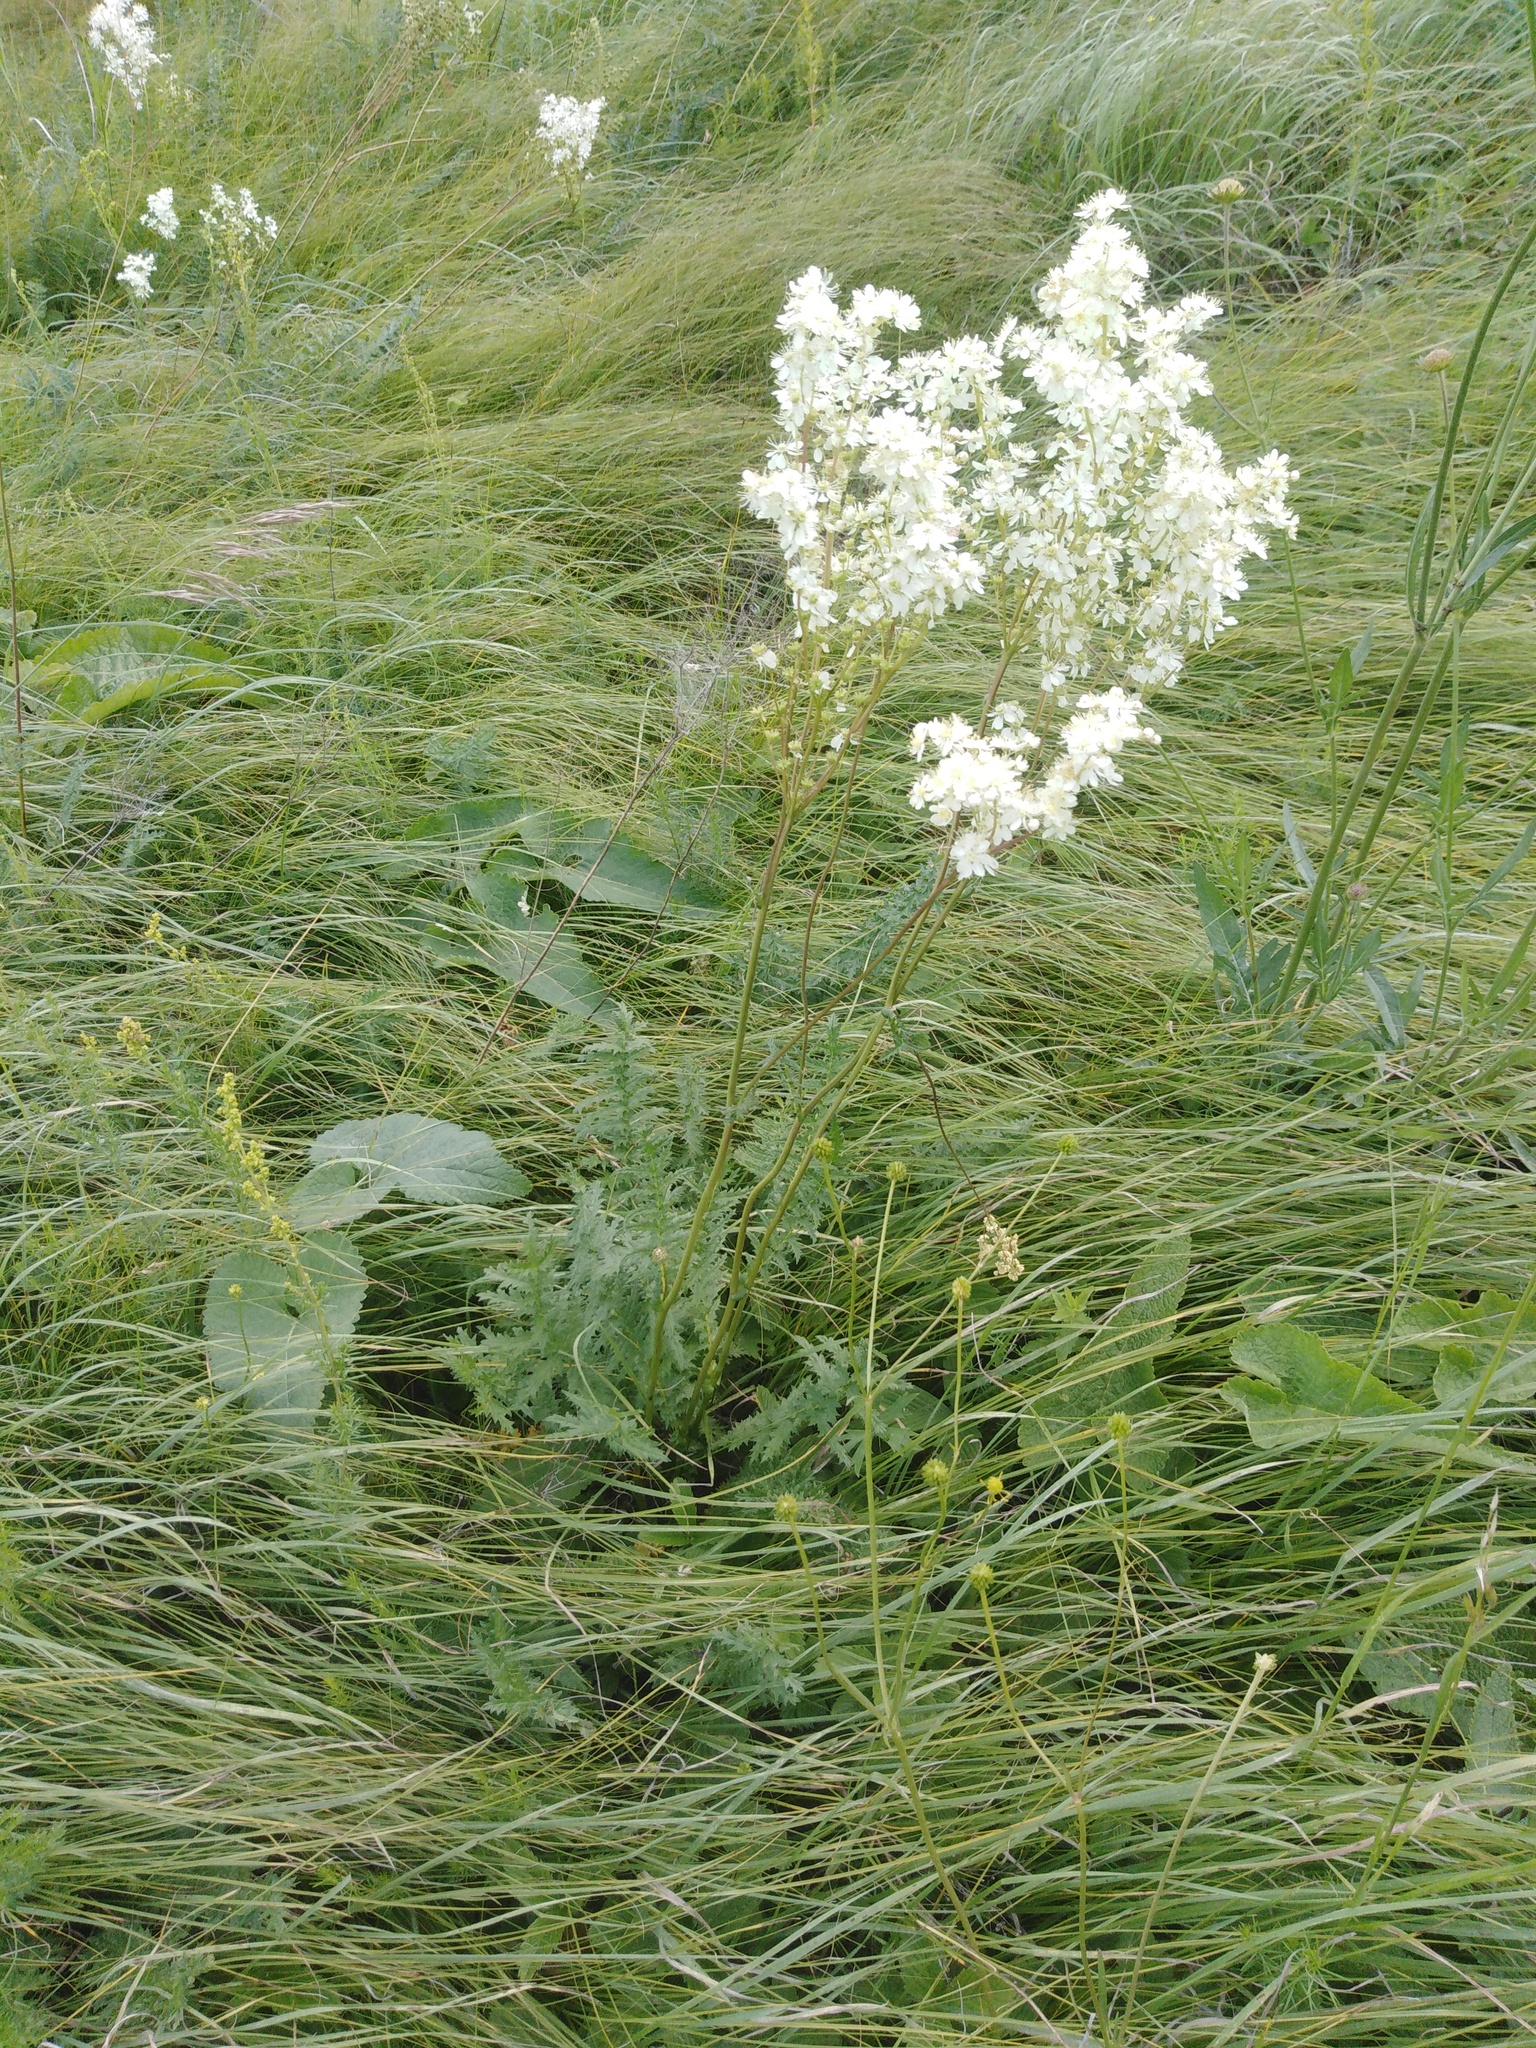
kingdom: Plantae
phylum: Tracheophyta
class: Magnoliopsida
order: Rosales
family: Rosaceae
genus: Filipendula
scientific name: Filipendula vulgaris
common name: Dropwort
